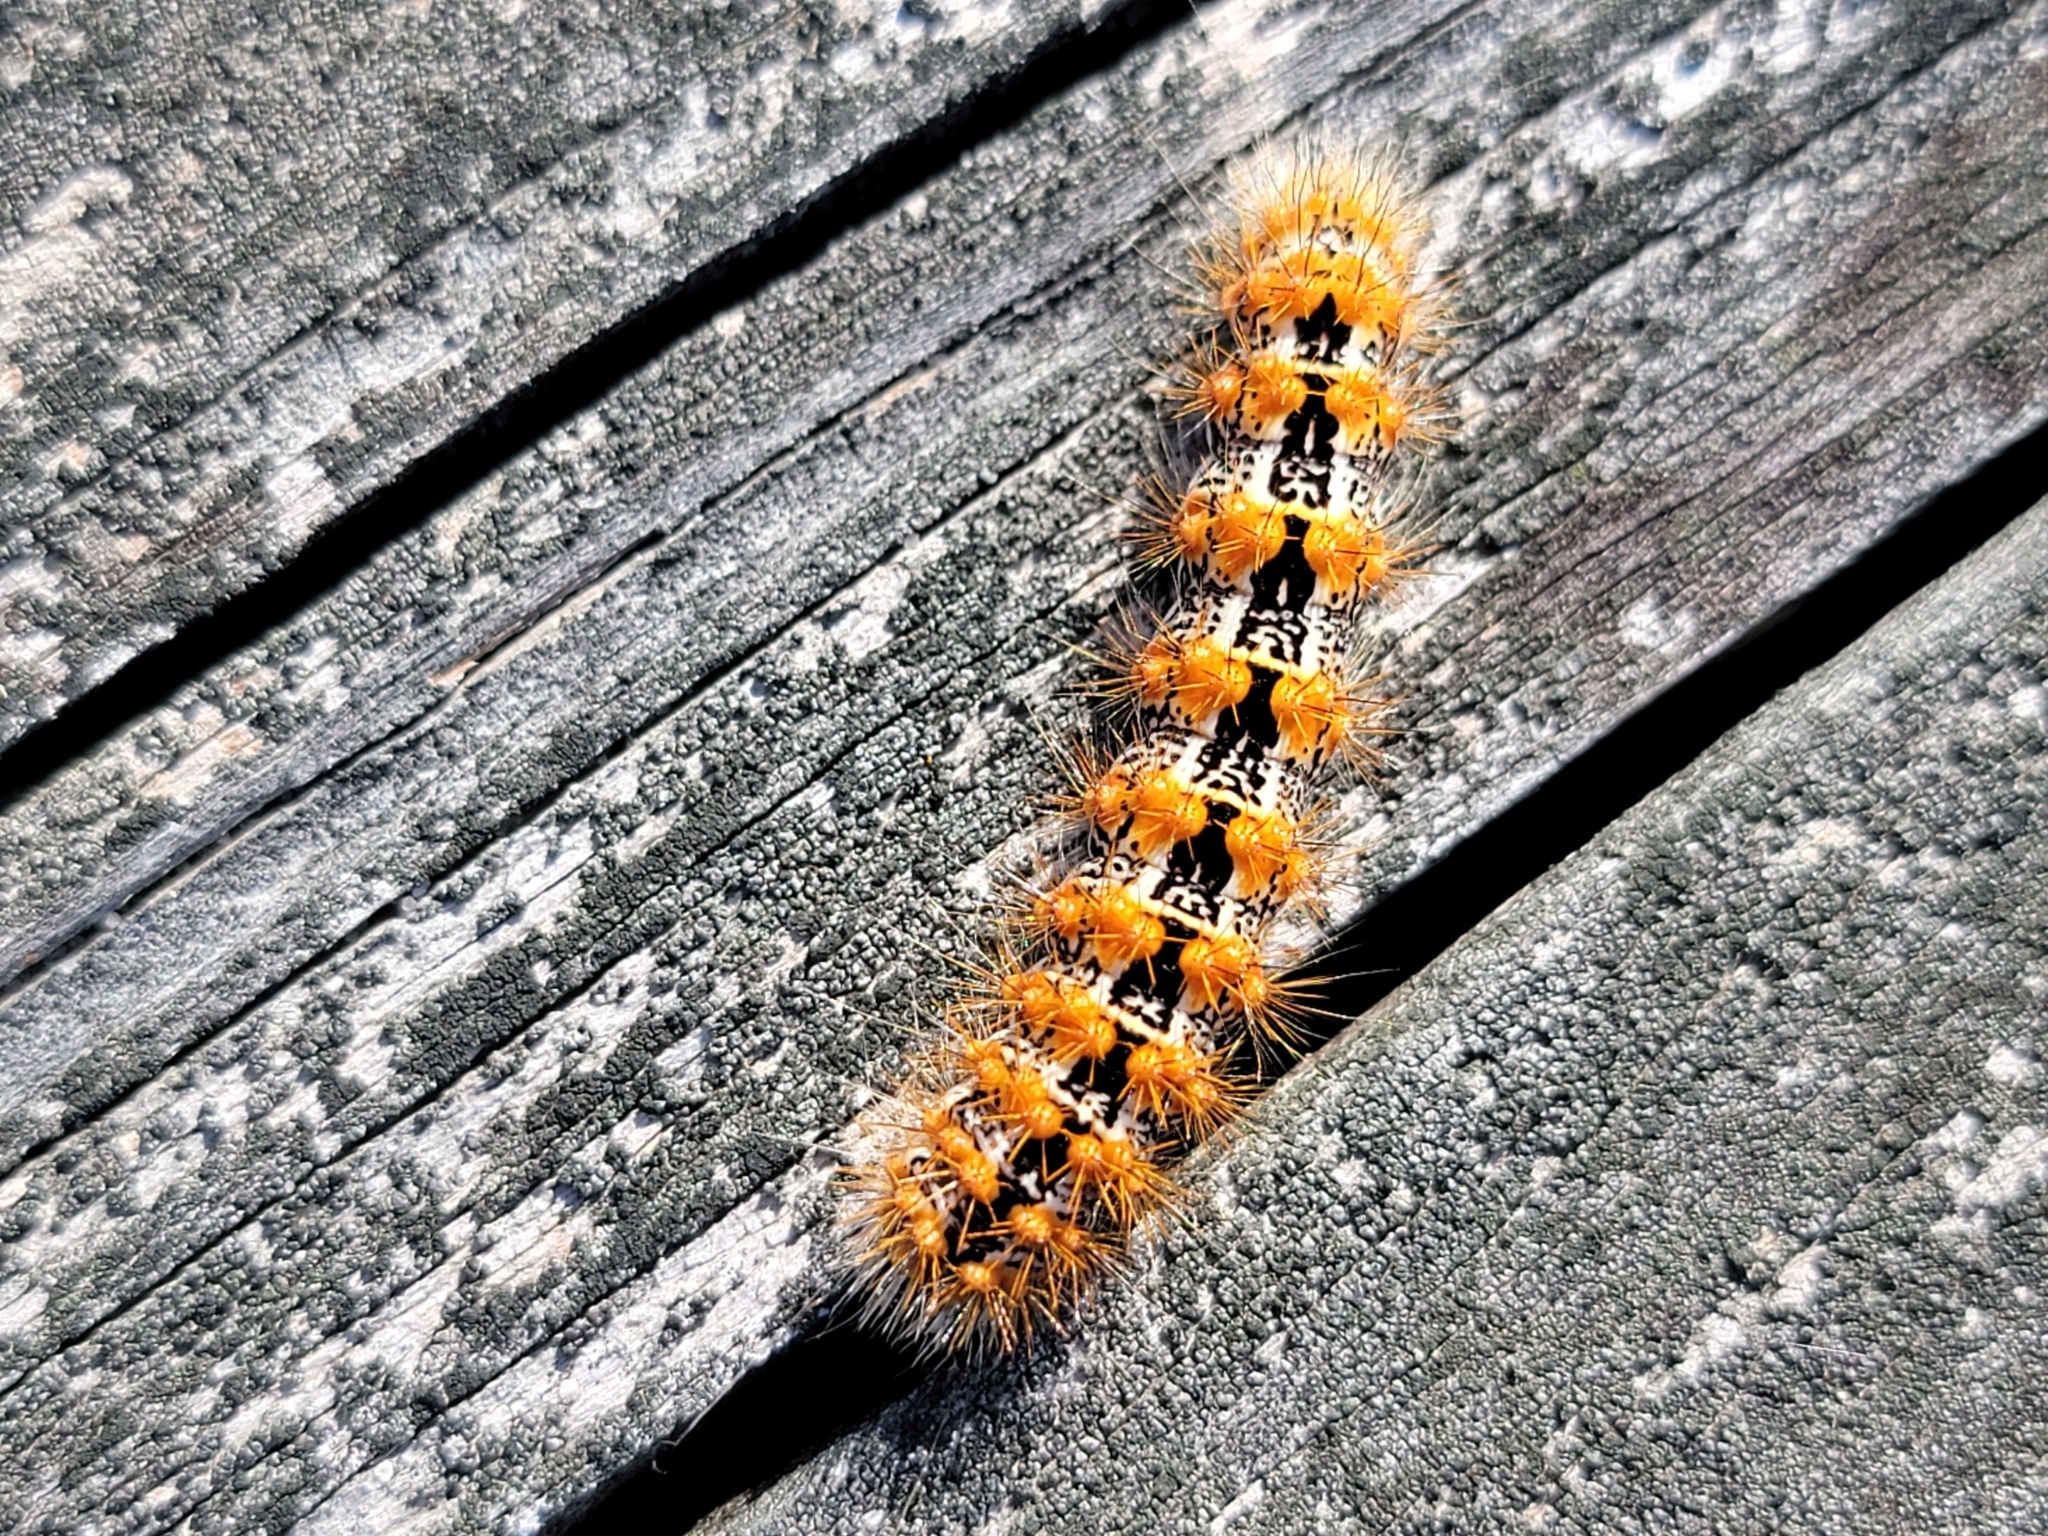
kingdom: Animalia
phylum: Arthropoda
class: Insecta
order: Lepidoptera
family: Noctuidae
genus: Acronicta
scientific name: Acronicta insularis
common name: Henry's marsh moth
